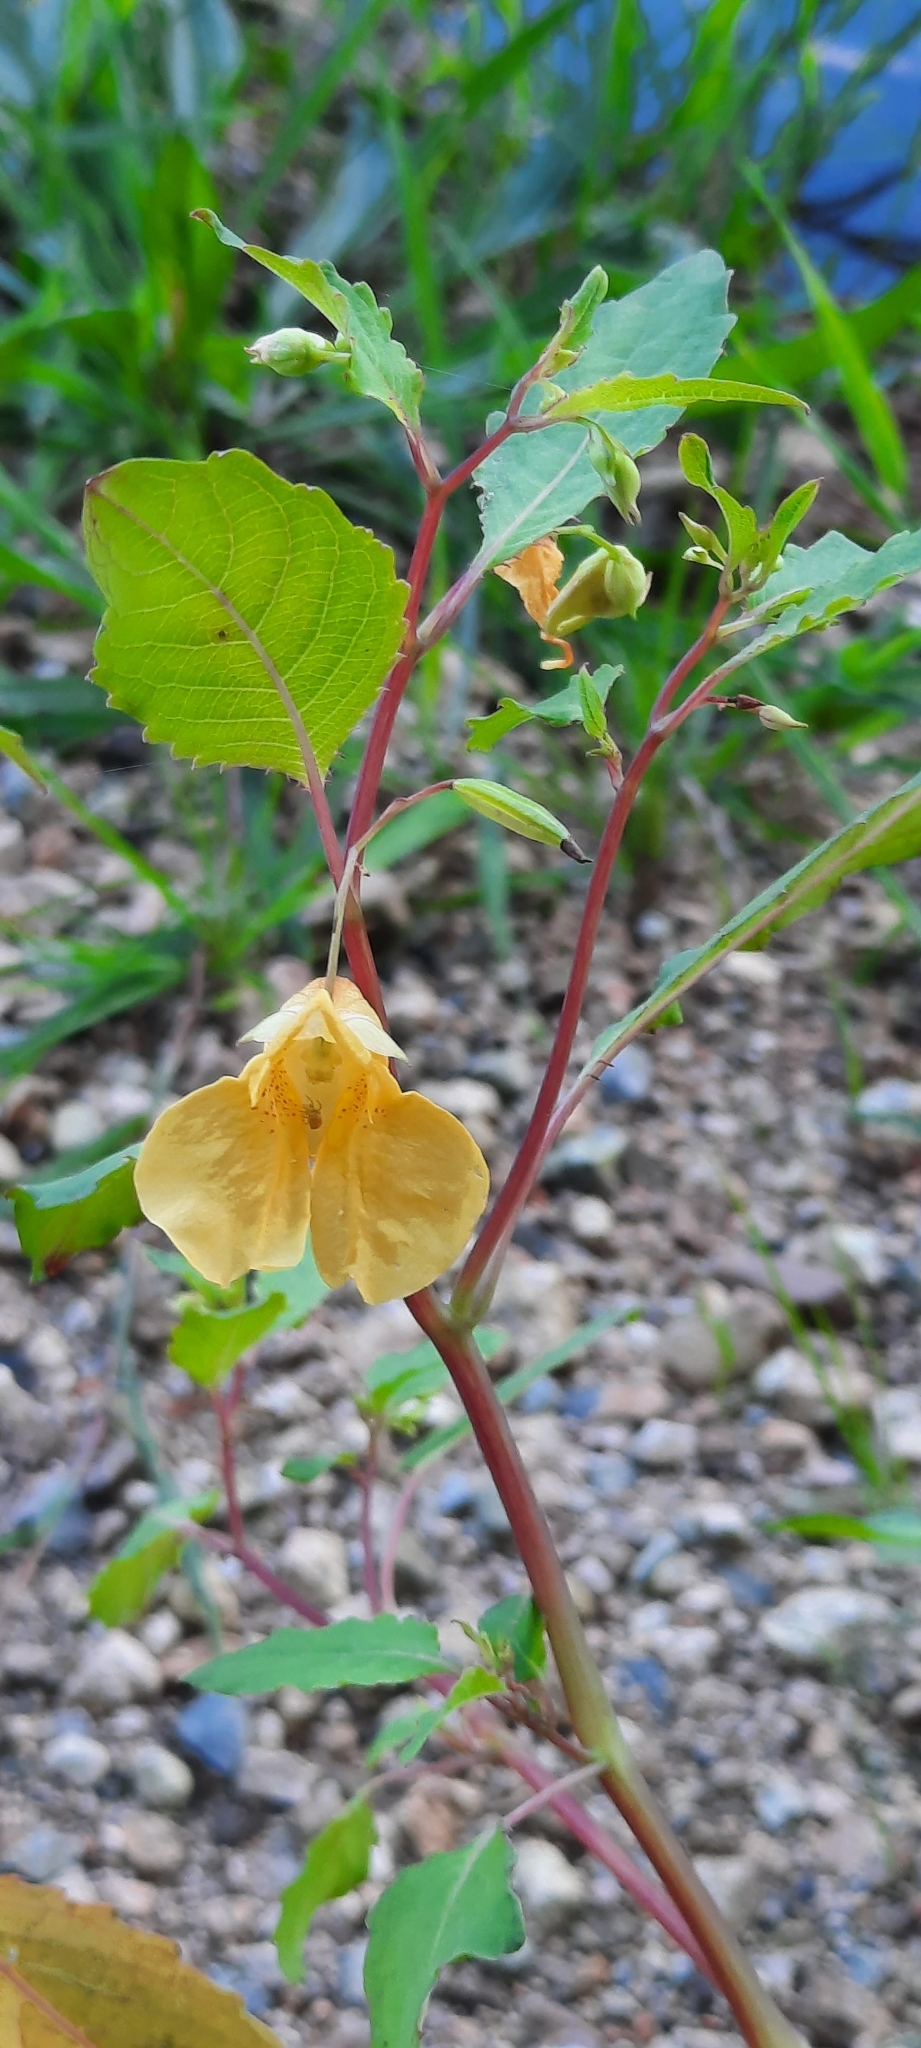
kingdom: Plantae
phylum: Tracheophyta
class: Magnoliopsida
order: Ericales
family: Balsaminaceae
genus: Impatiens
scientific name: Impatiens noli-tangere
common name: Touch-me-not balsam
